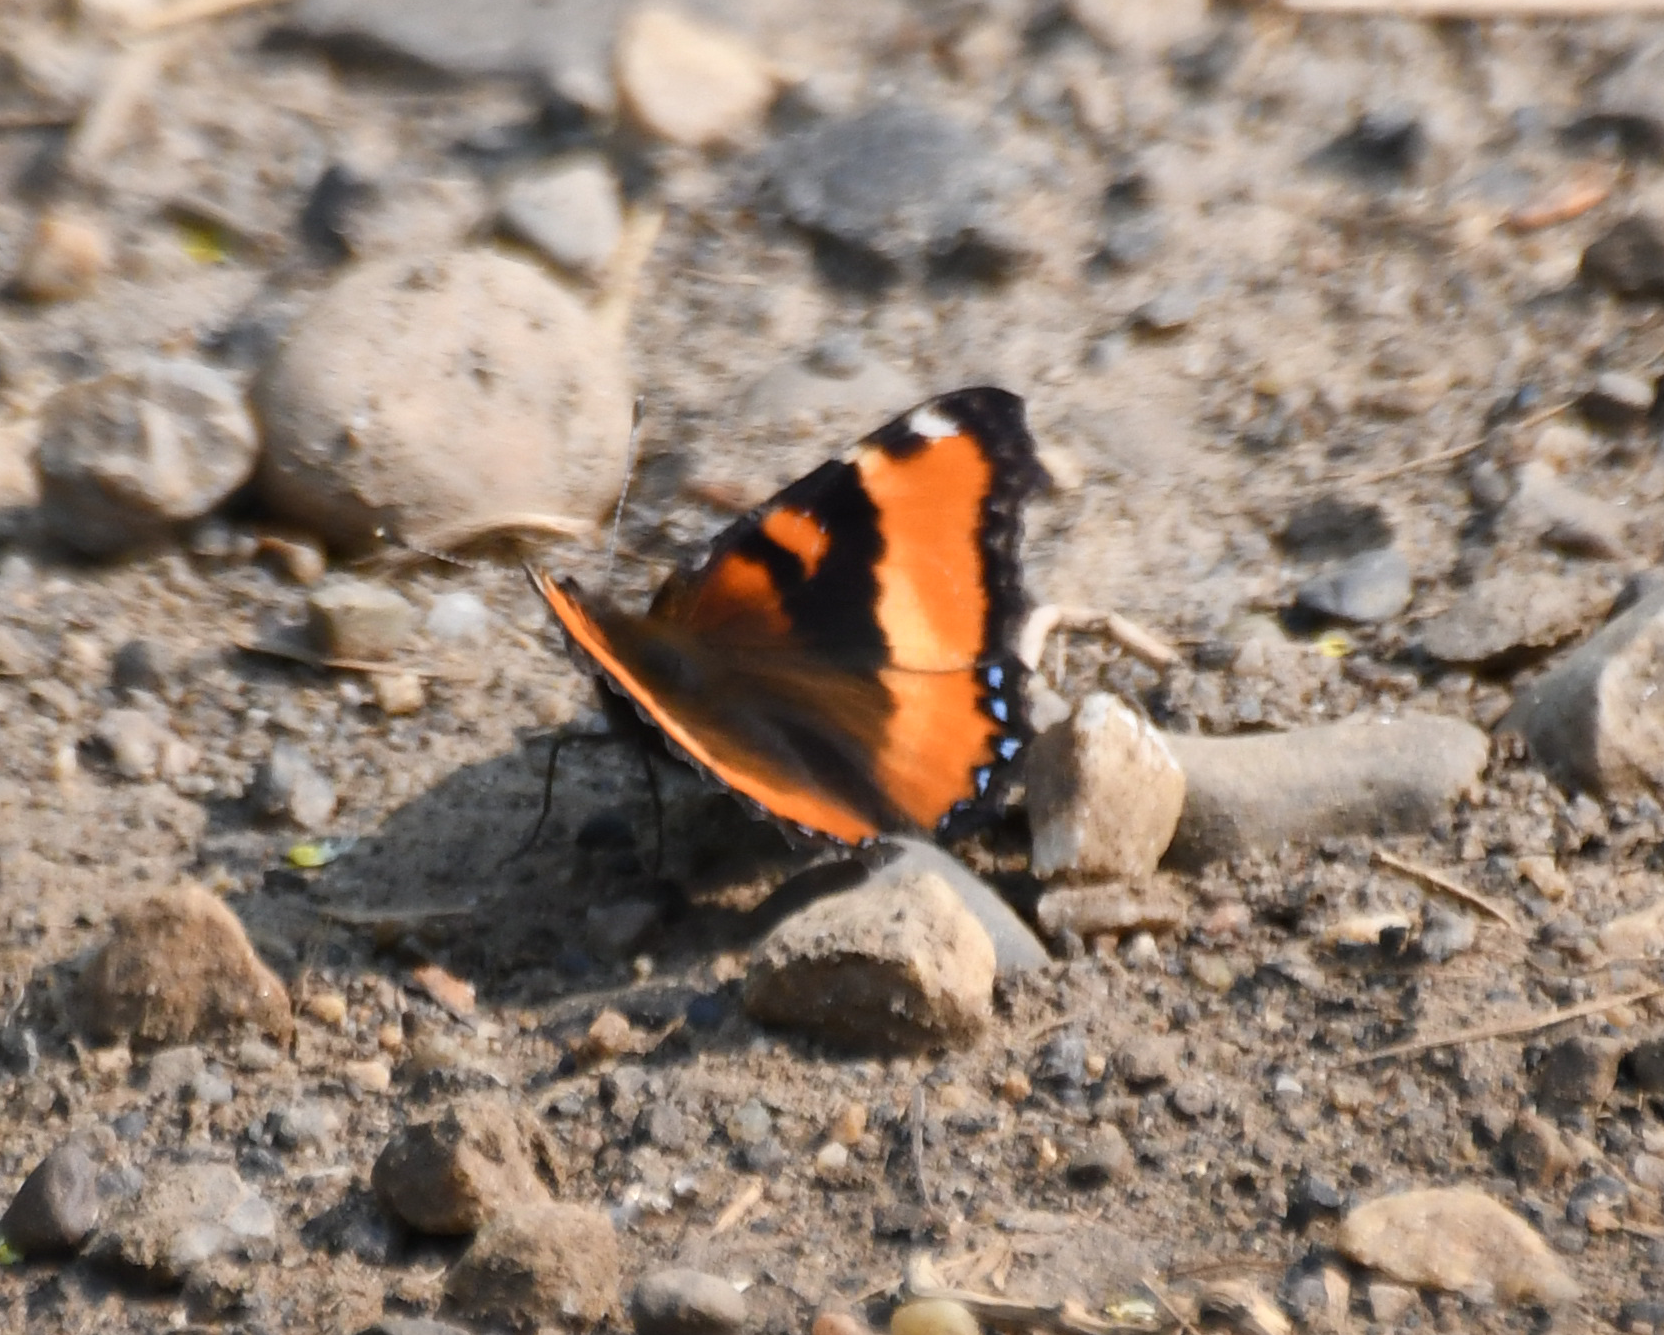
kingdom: Animalia
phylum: Arthropoda
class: Insecta
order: Lepidoptera
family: Nymphalidae
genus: Aglais
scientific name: Aglais milberti
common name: Milbert's tortoiseshell
